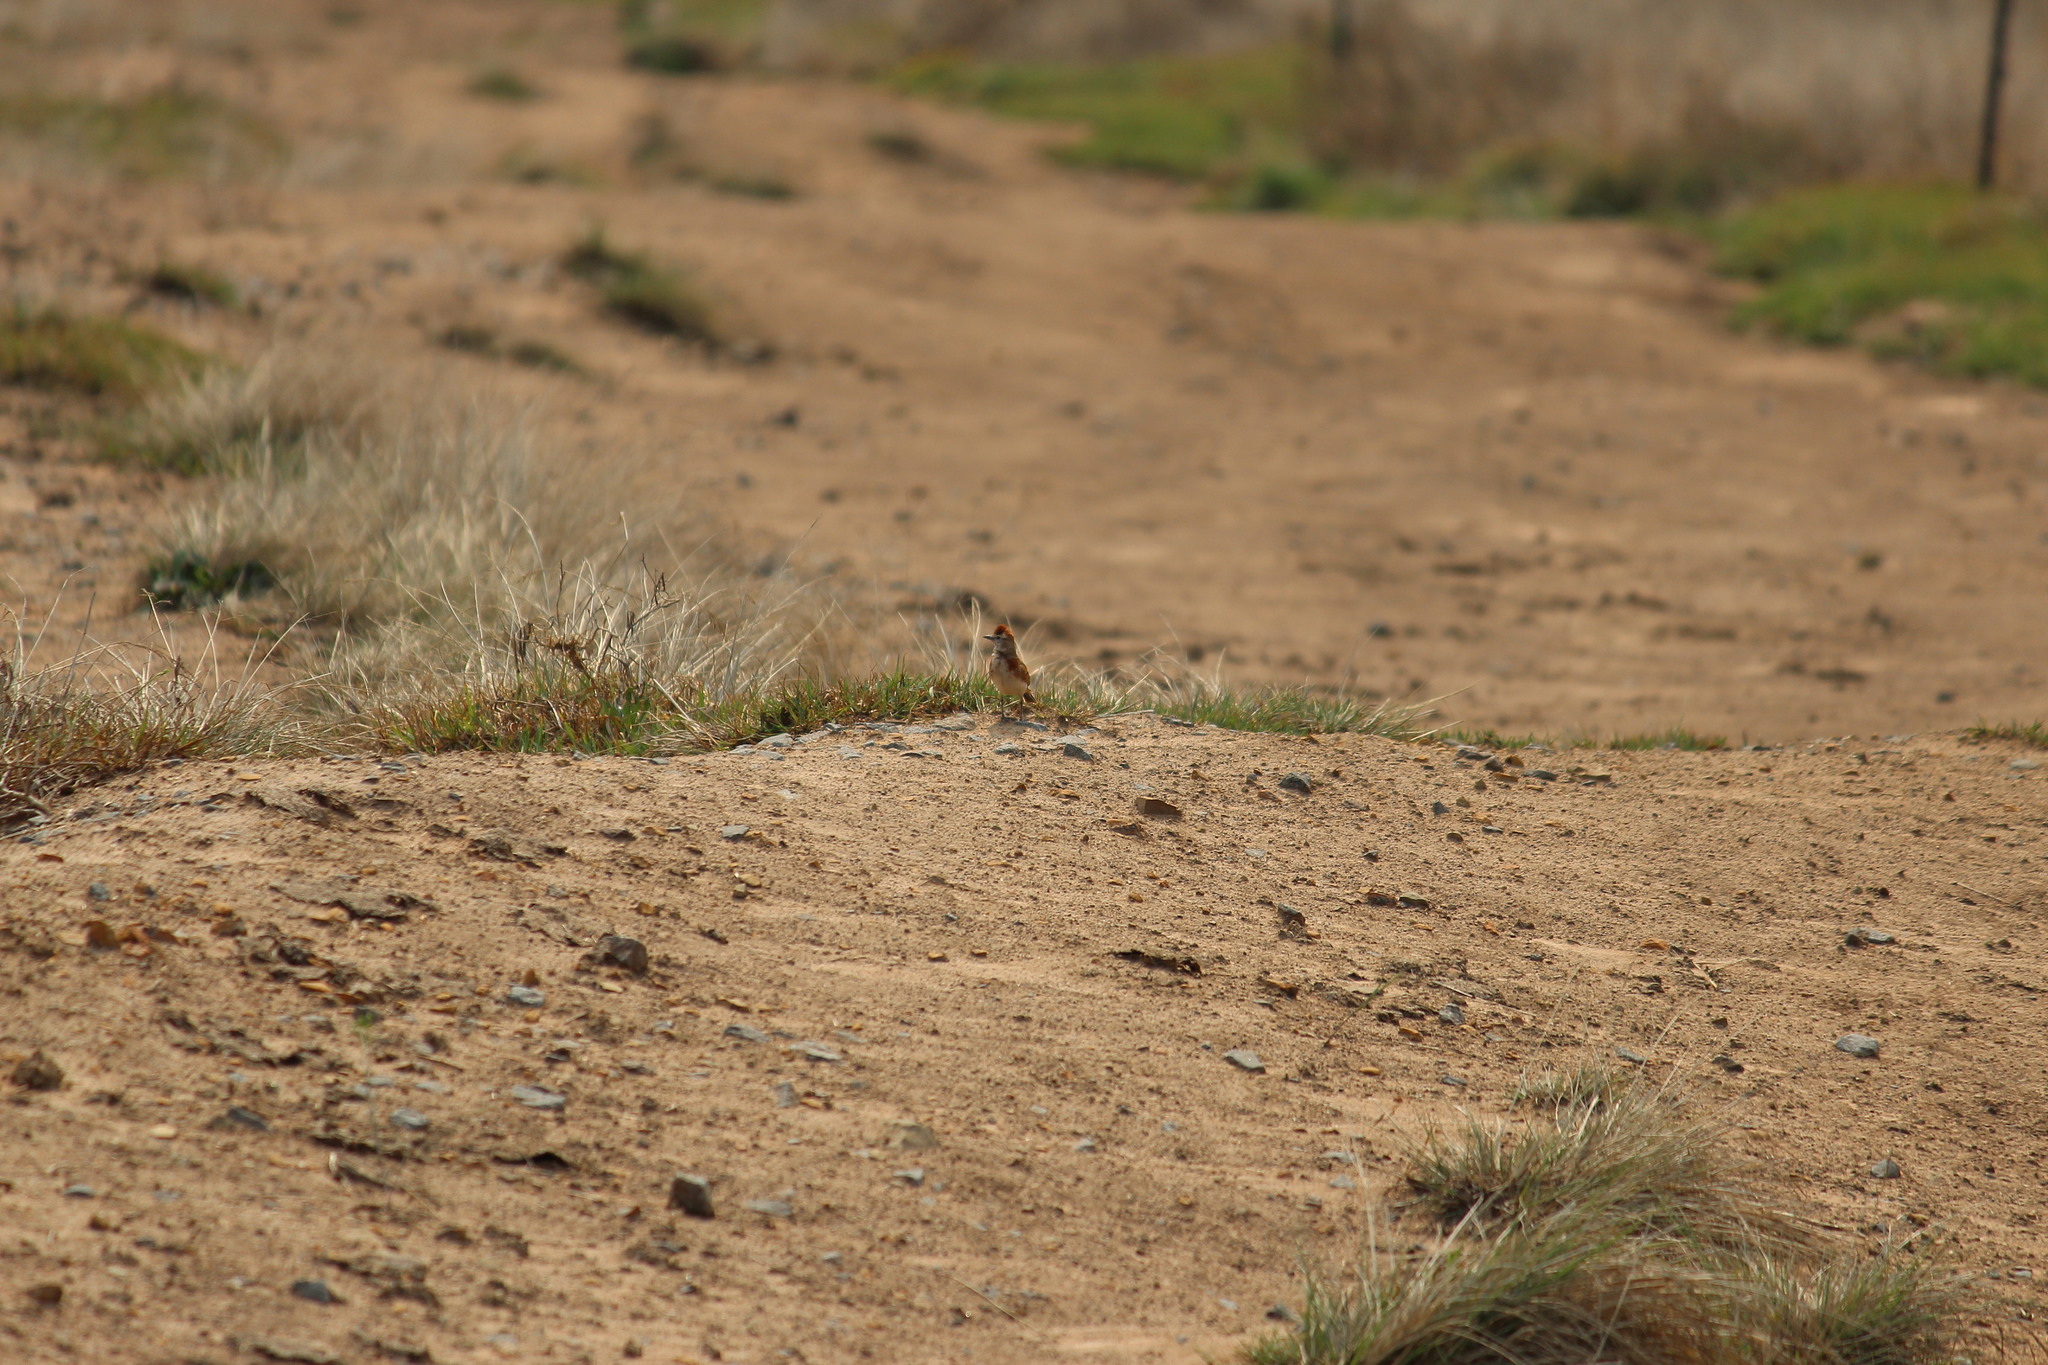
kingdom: Animalia
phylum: Chordata
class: Aves
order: Passeriformes
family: Alaudidae
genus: Calandrella
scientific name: Calandrella cinerea
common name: Red-capped lark
